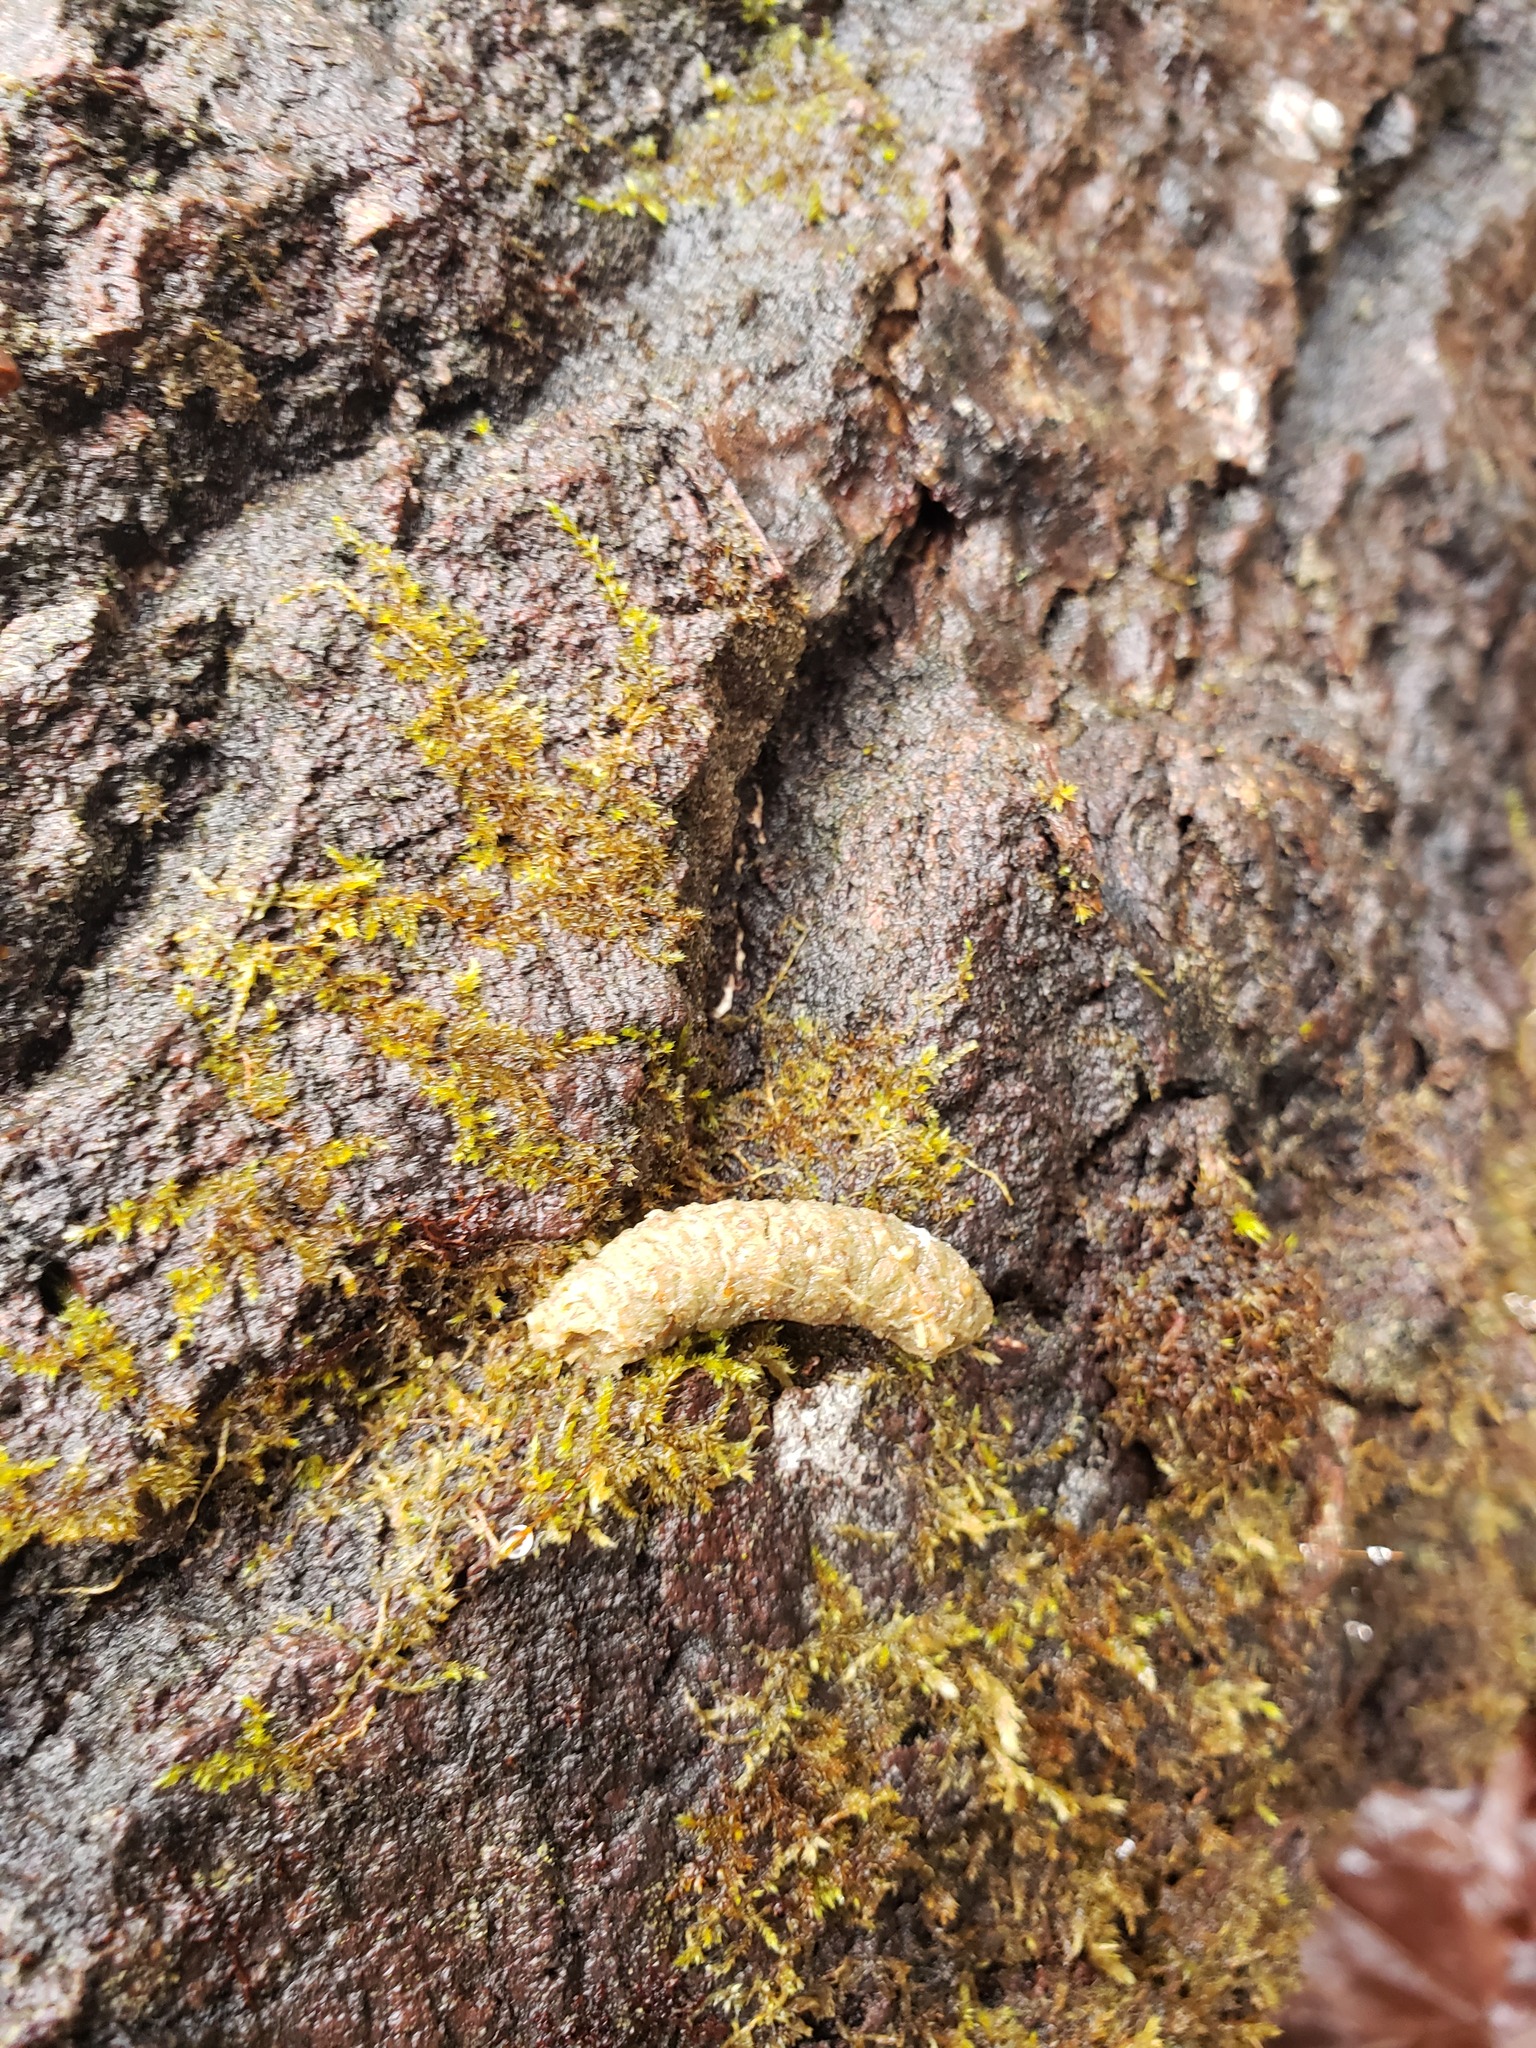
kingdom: Animalia
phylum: Chordata
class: Aves
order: Galliformes
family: Phasianidae
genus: Bonasa
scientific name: Bonasa umbellus
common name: Ruffed grouse
